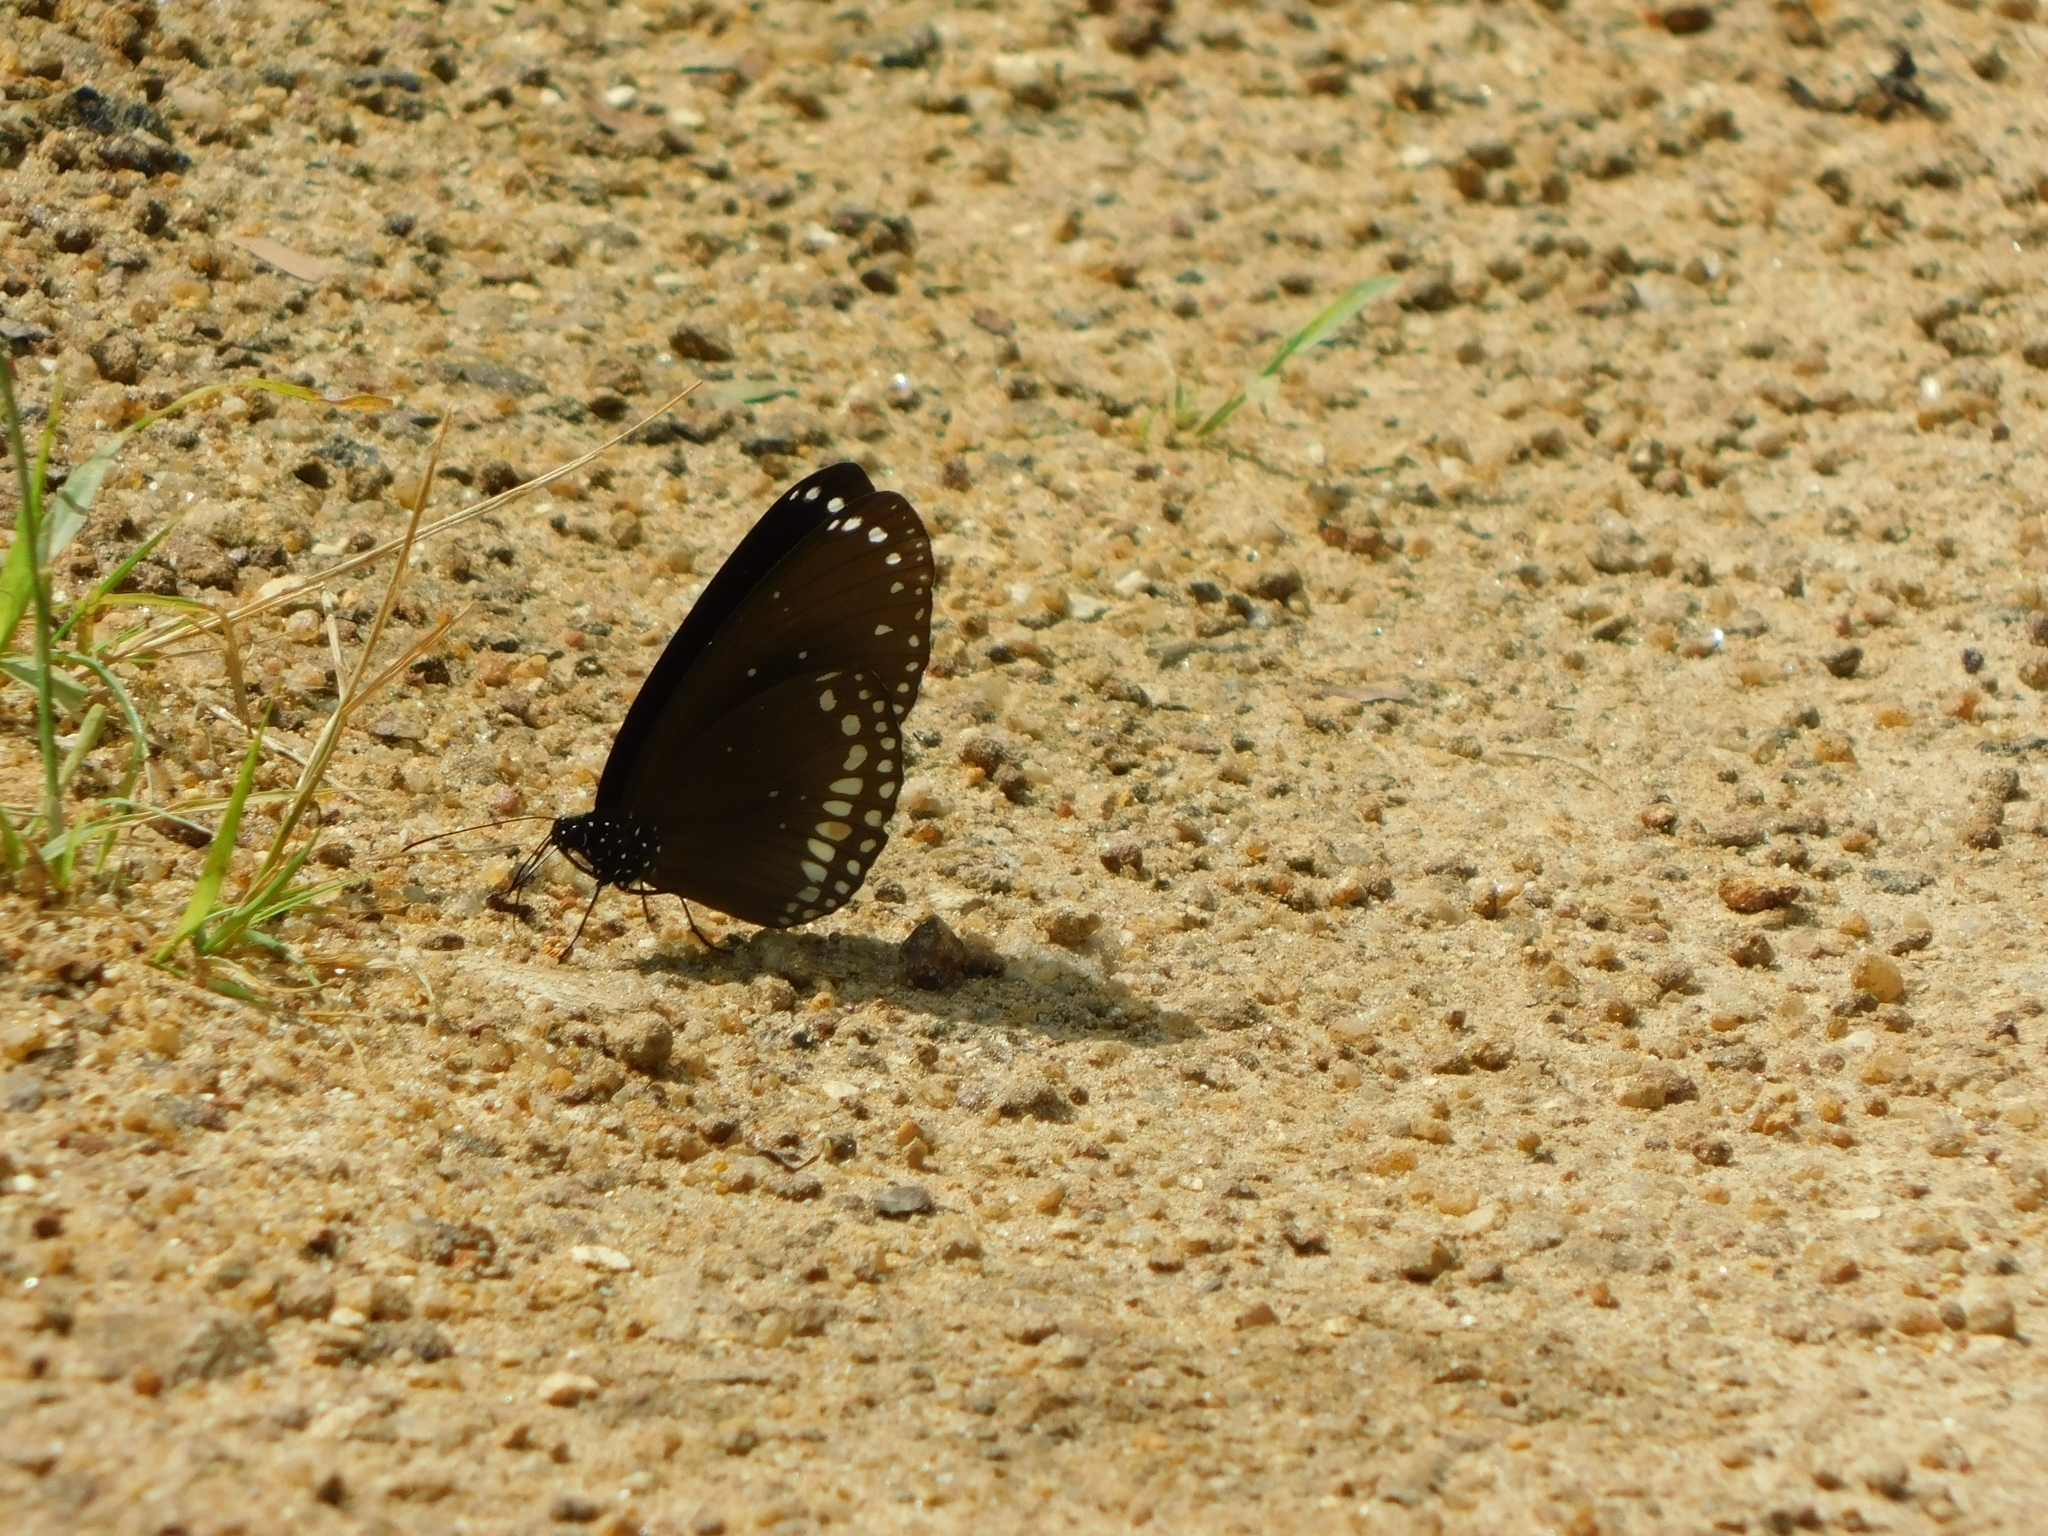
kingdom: Animalia
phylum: Arthropoda
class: Insecta
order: Lepidoptera
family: Nymphalidae
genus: Euploea
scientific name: Euploea sylvester
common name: Double-branded crow butterfly
